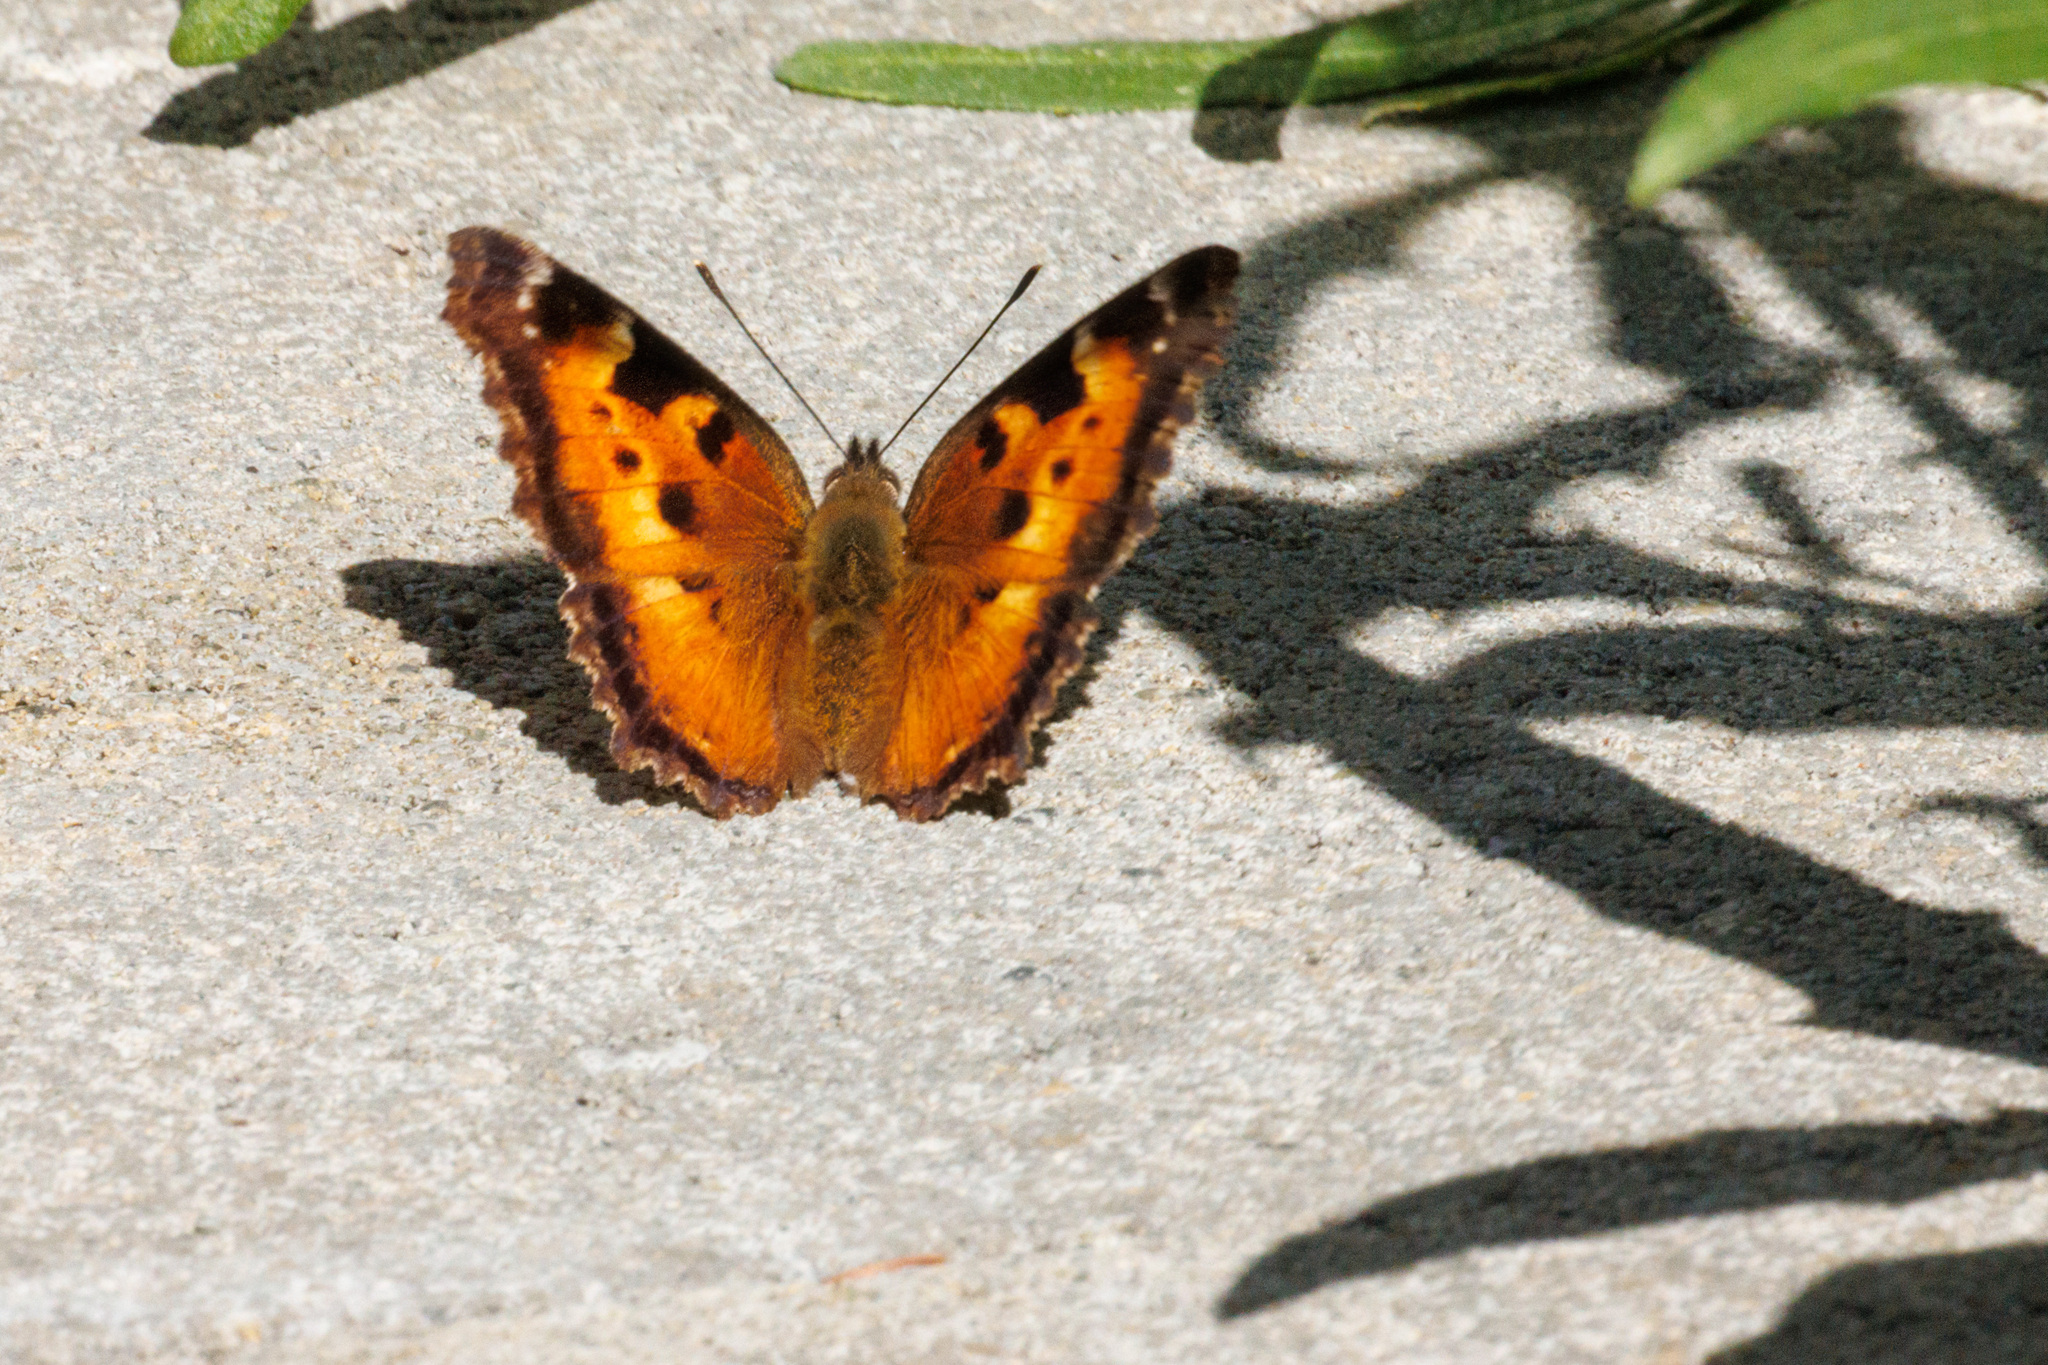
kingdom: Animalia
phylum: Arthropoda
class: Insecta
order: Lepidoptera
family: Nymphalidae
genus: Nymphalis
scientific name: Nymphalis californica
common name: California tortoiseshell
